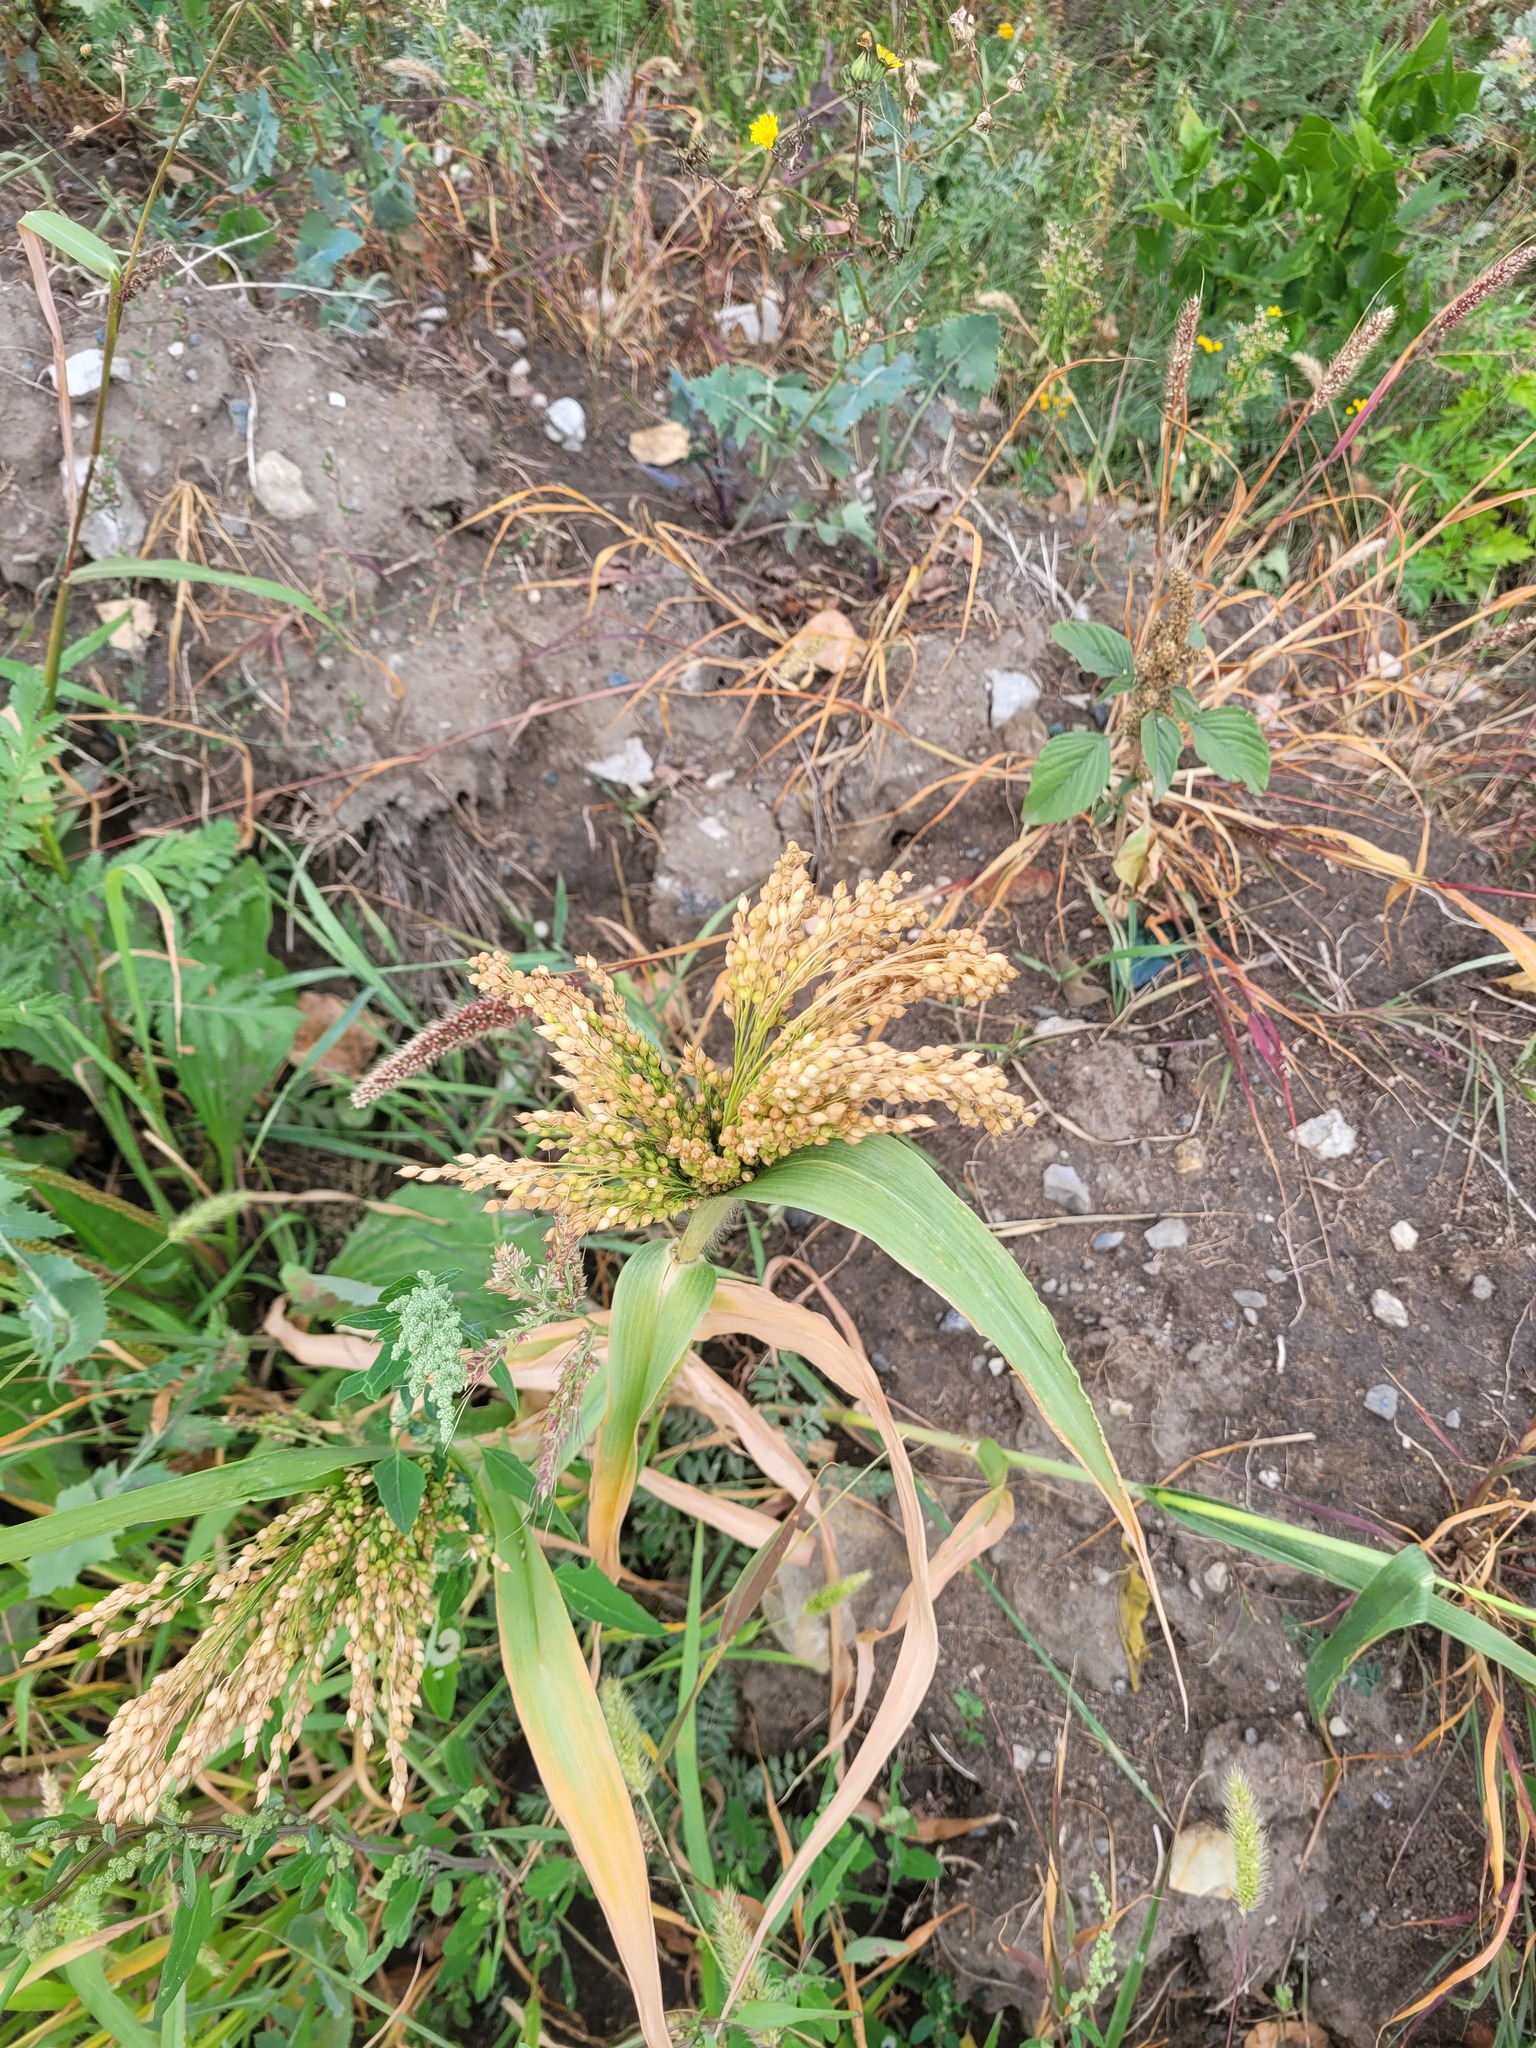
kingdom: Plantae
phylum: Tracheophyta
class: Liliopsida
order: Poales
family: Poaceae
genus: Panicum
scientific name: Panicum miliaceum
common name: Common millet
